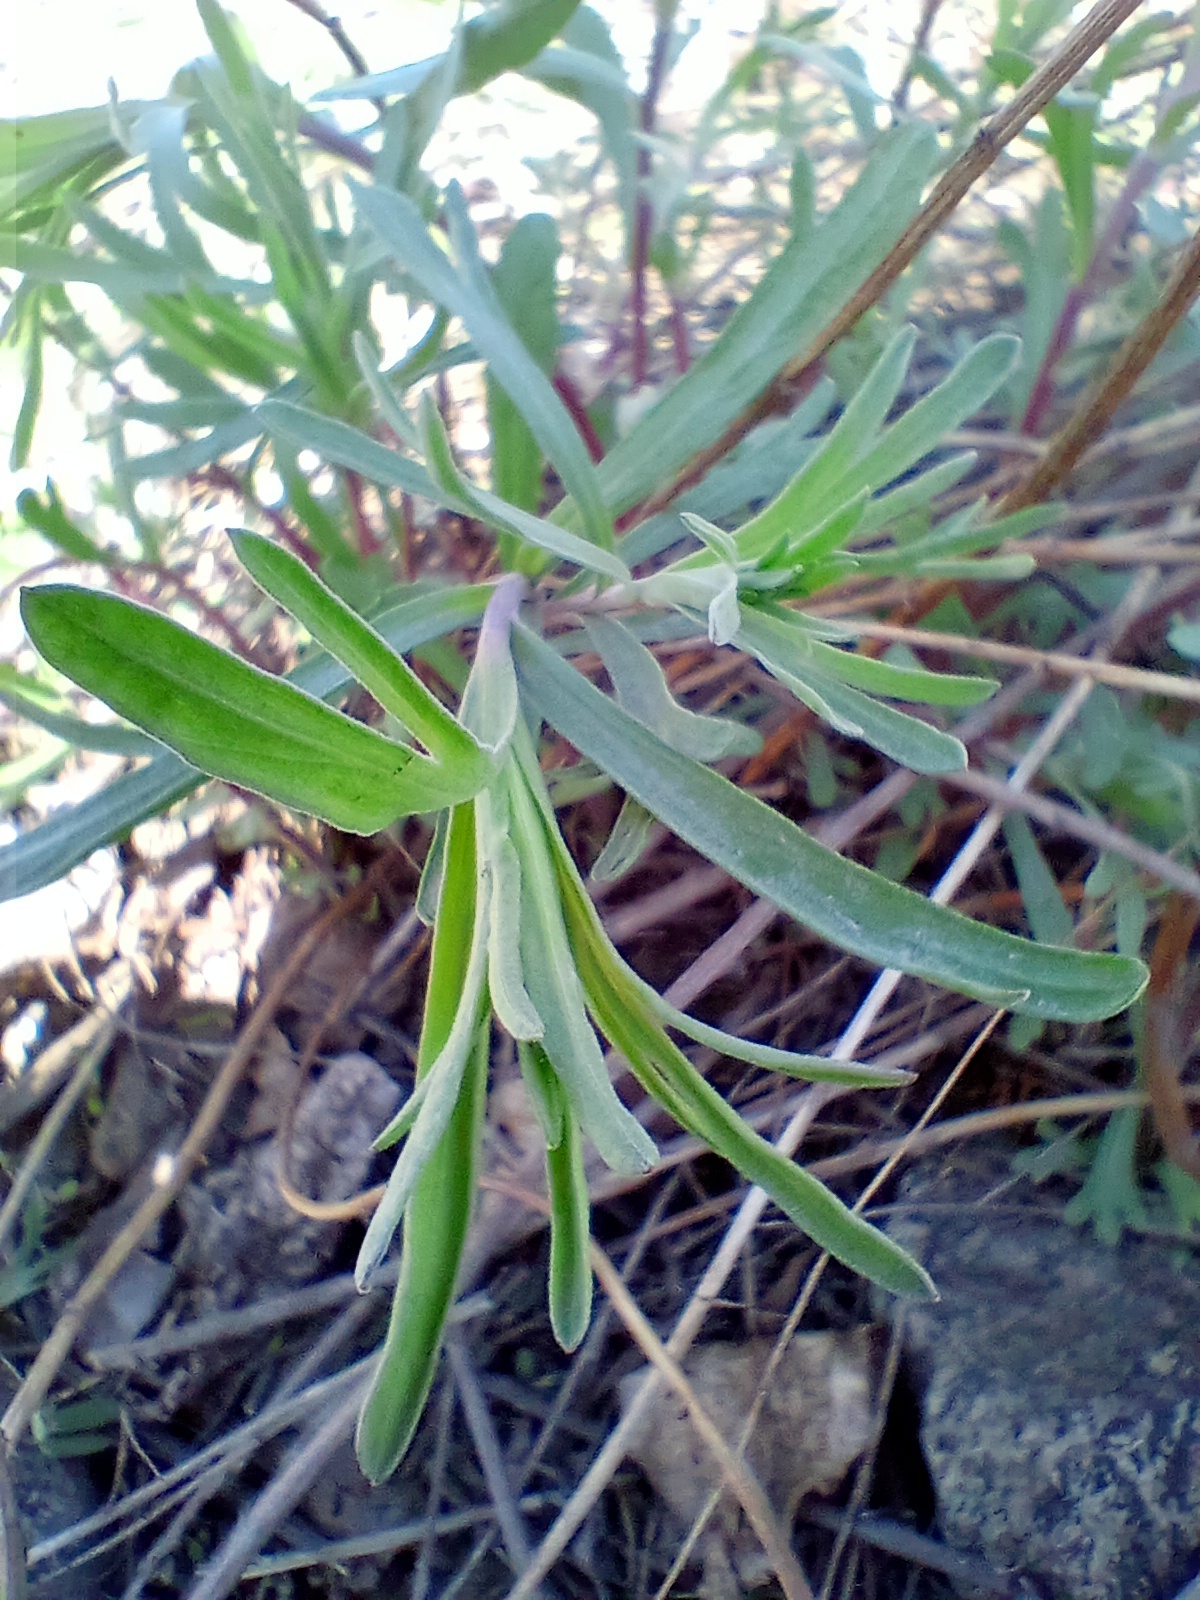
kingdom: Plantae
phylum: Tracheophyta
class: Magnoliopsida
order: Asterales
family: Asteraceae
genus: Artemisia
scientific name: Artemisia dracunculus
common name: Tarragon
